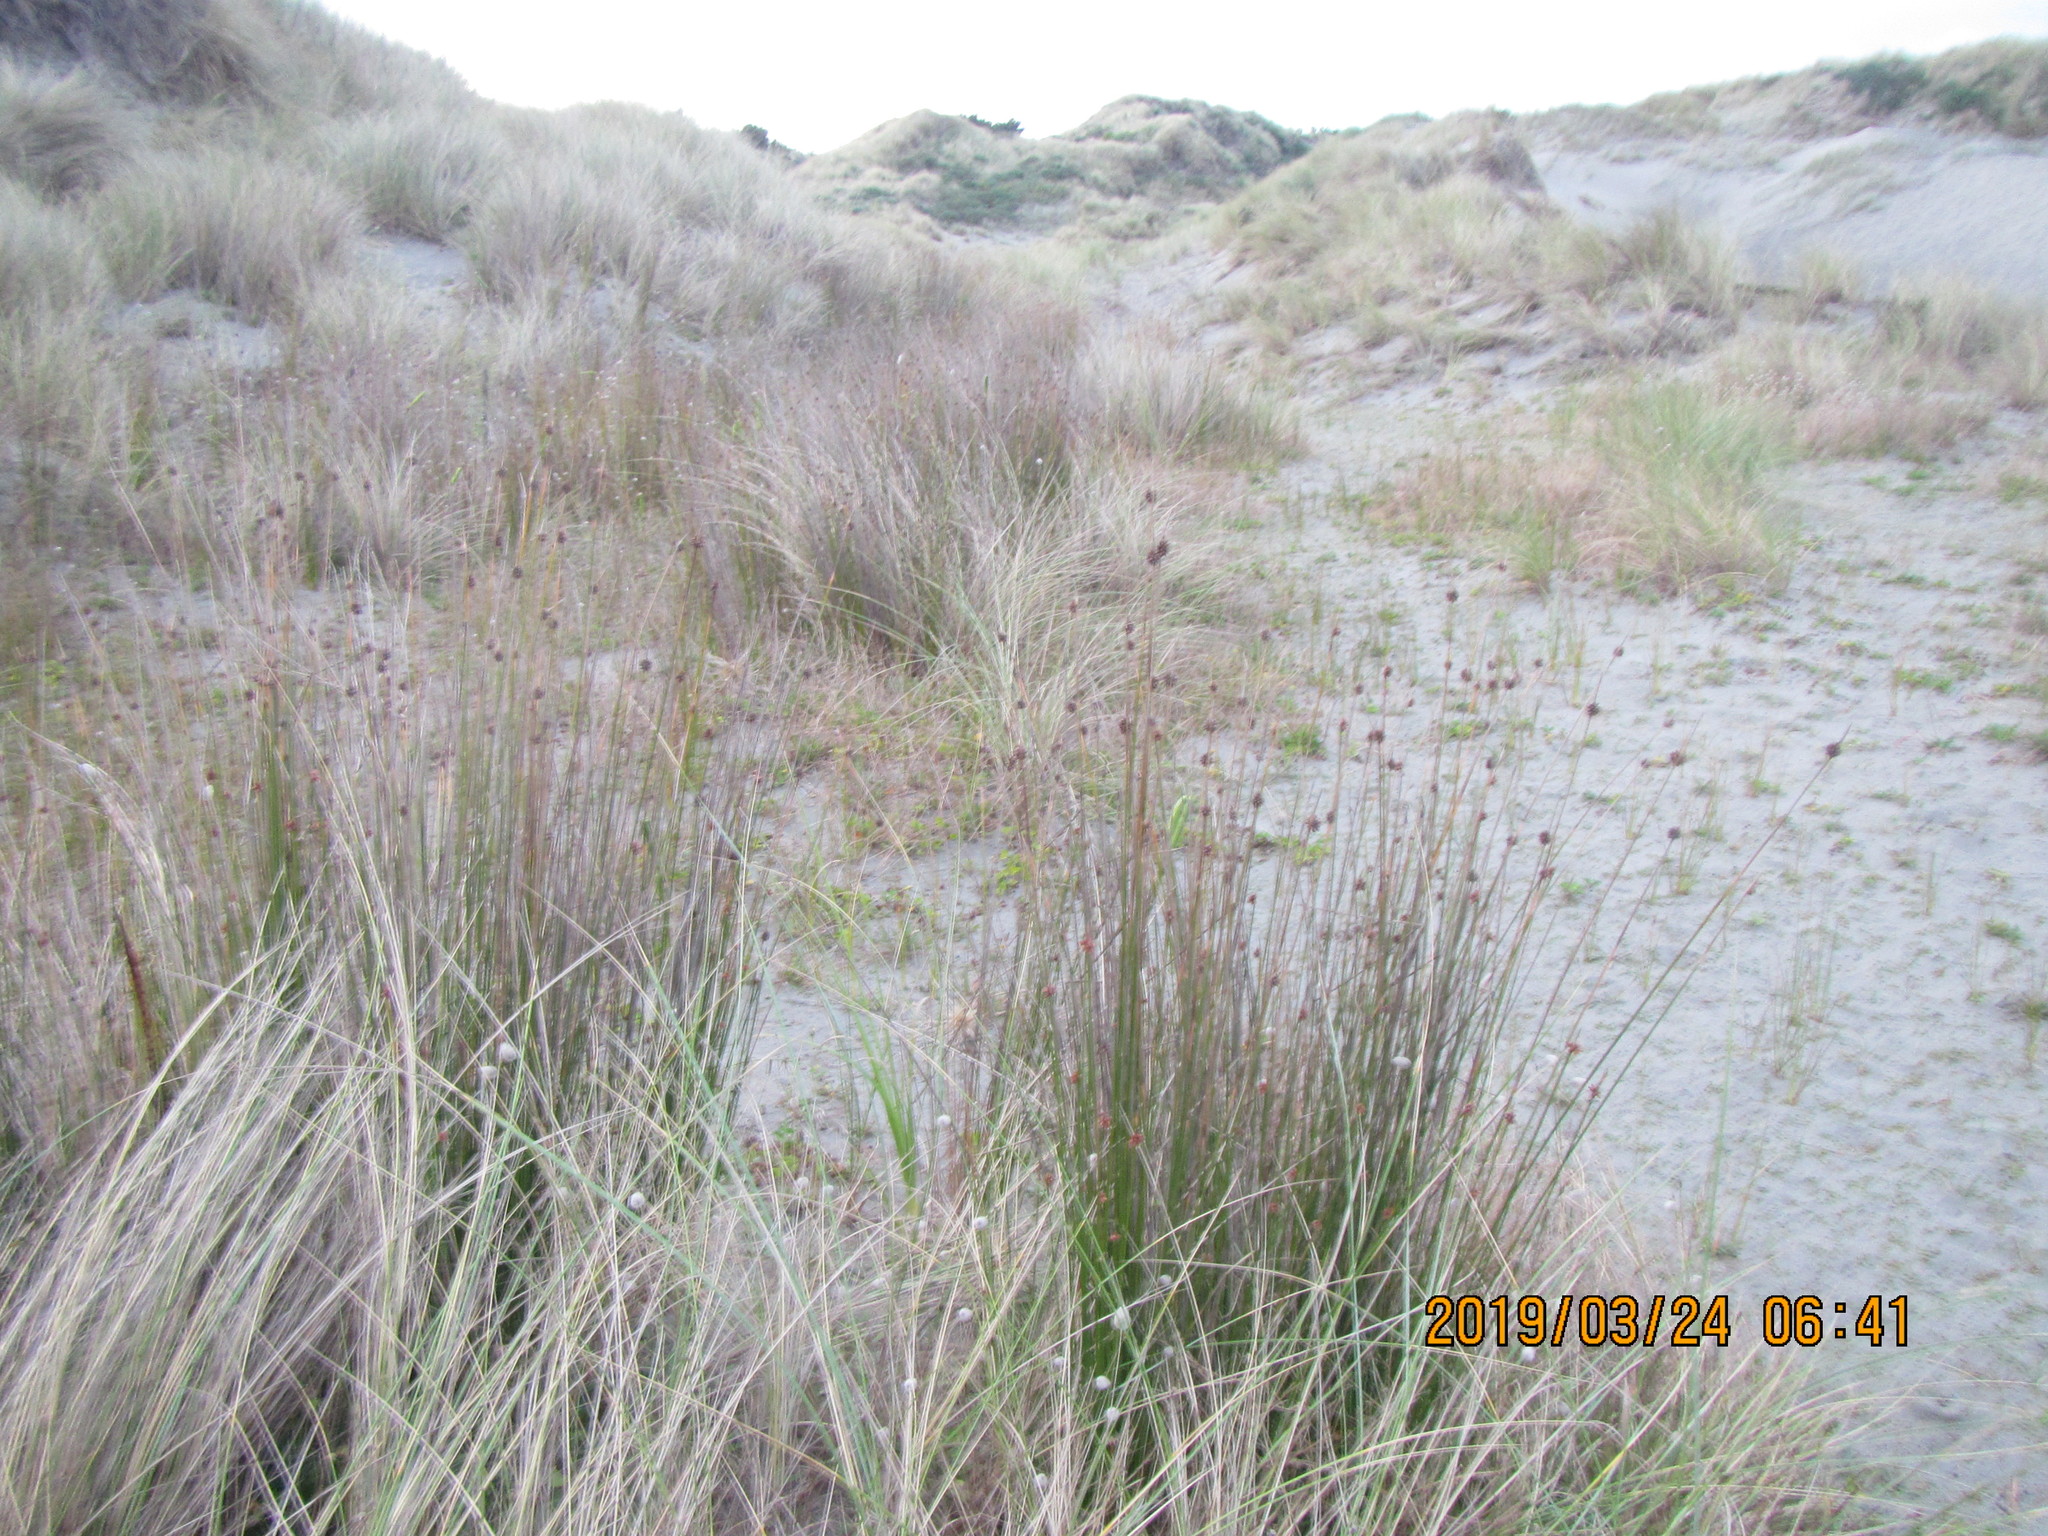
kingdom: Plantae
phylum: Tracheophyta
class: Liliopsida
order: Poales
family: Cyperaceae
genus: Ficinia
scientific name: Ficinia nodosa
